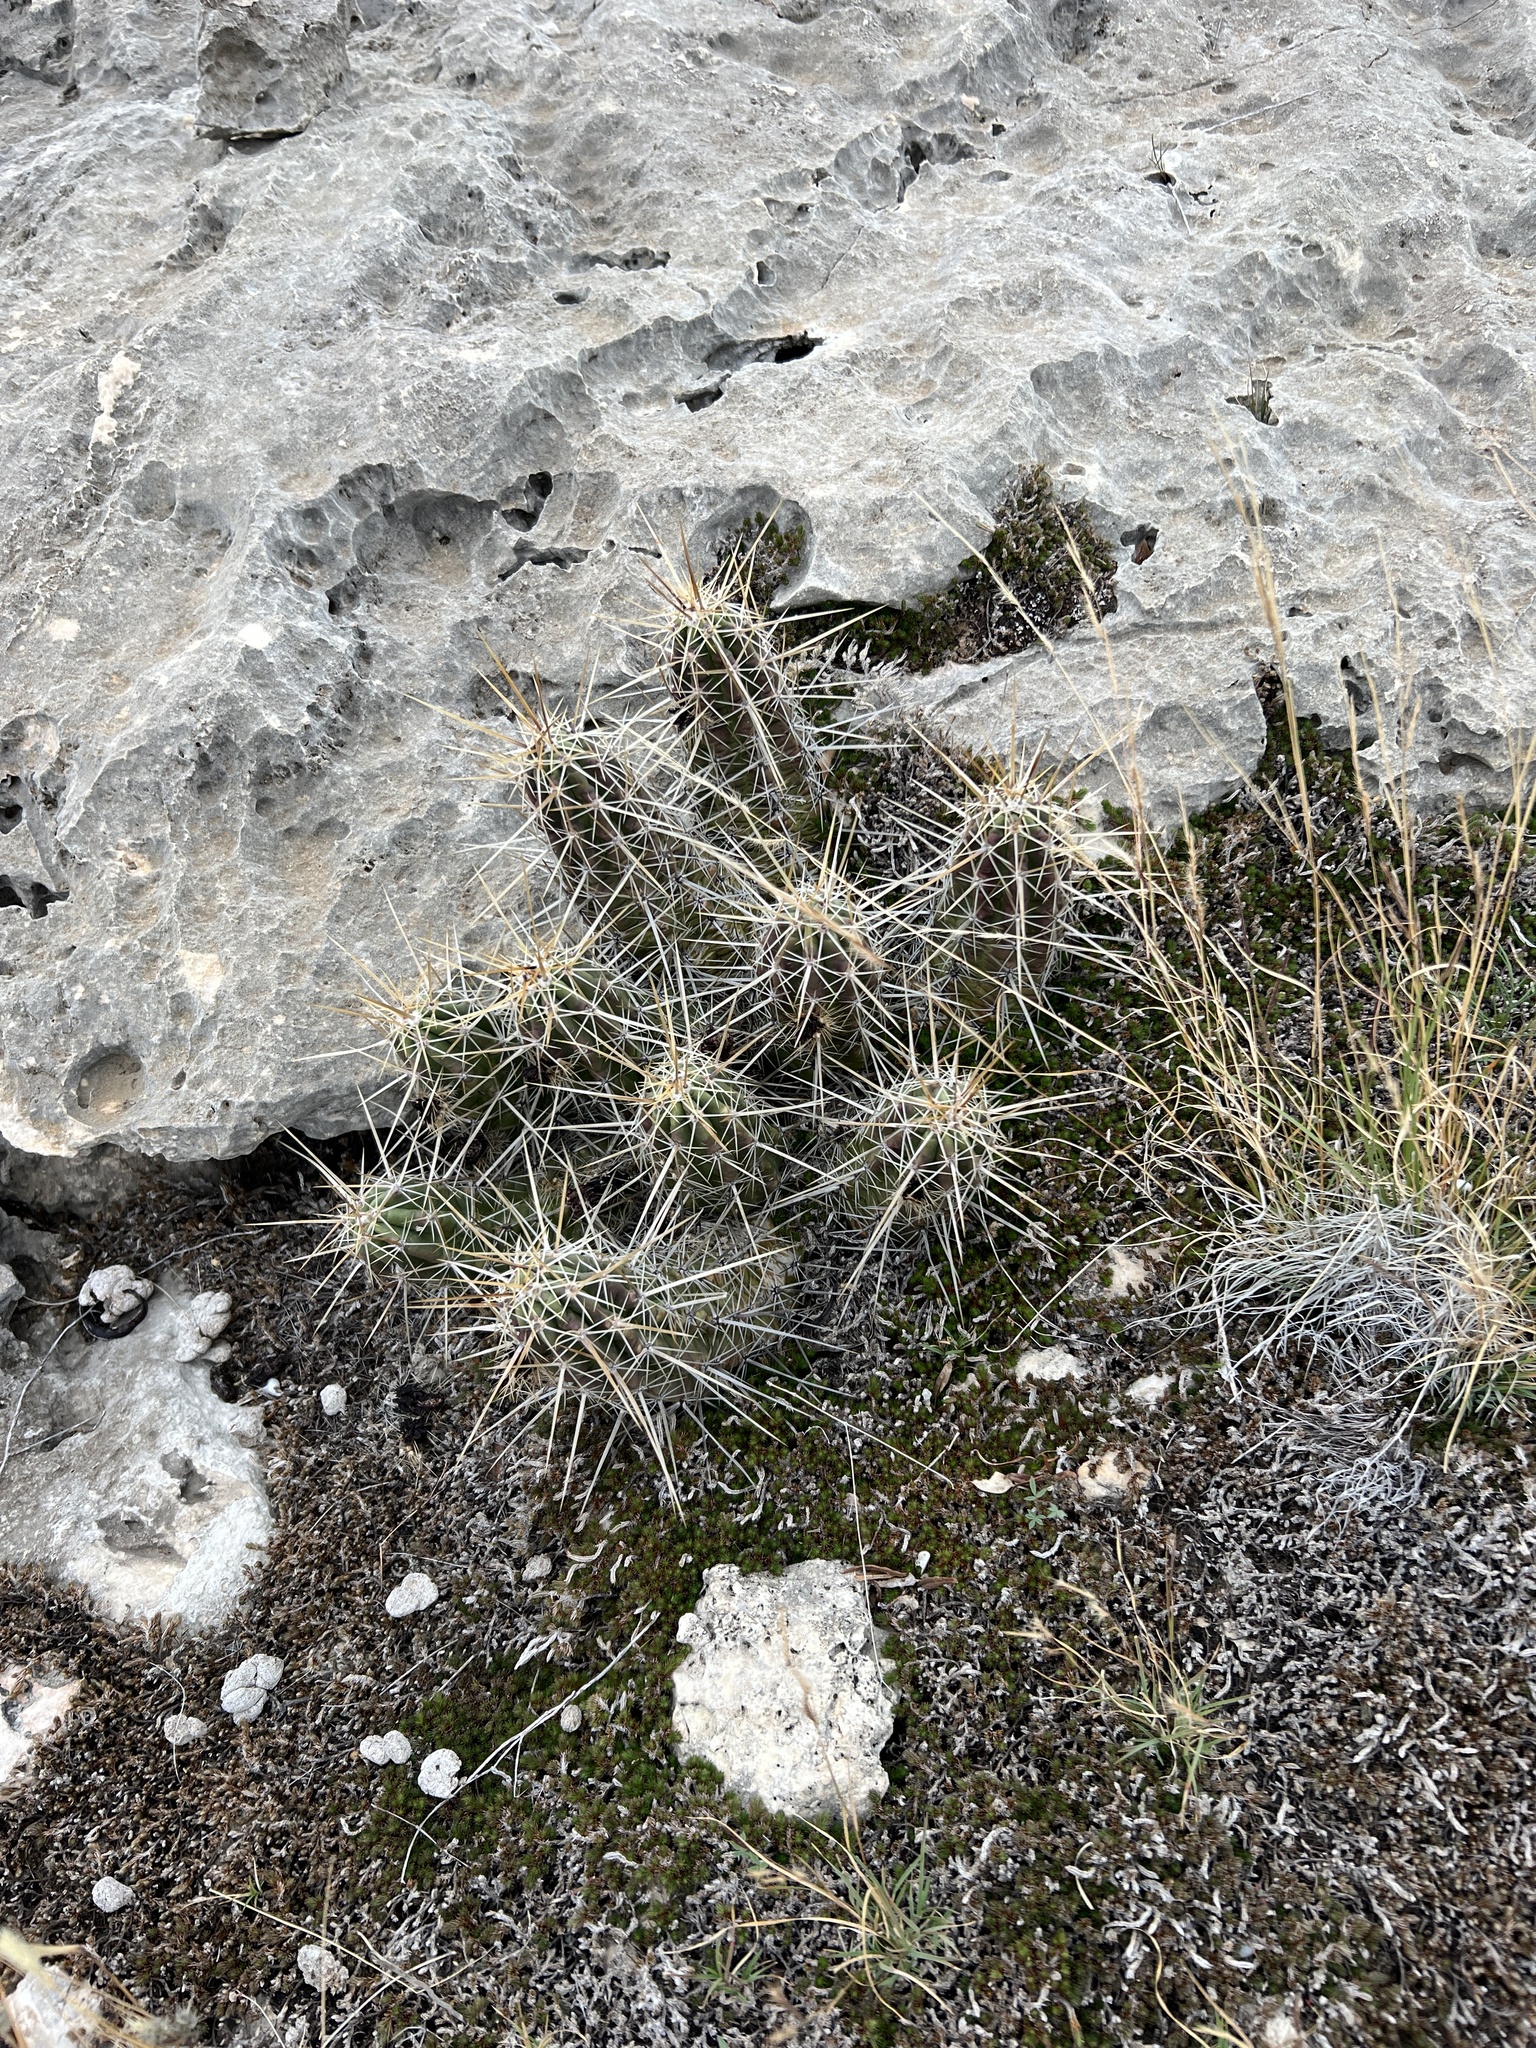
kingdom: Plantae
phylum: Tracheophyta
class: Magnoliopsida
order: Caryophyllales
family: Cactaceae
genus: Echinocereus
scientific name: Echinocereus enneacanthus
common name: Pitaya
